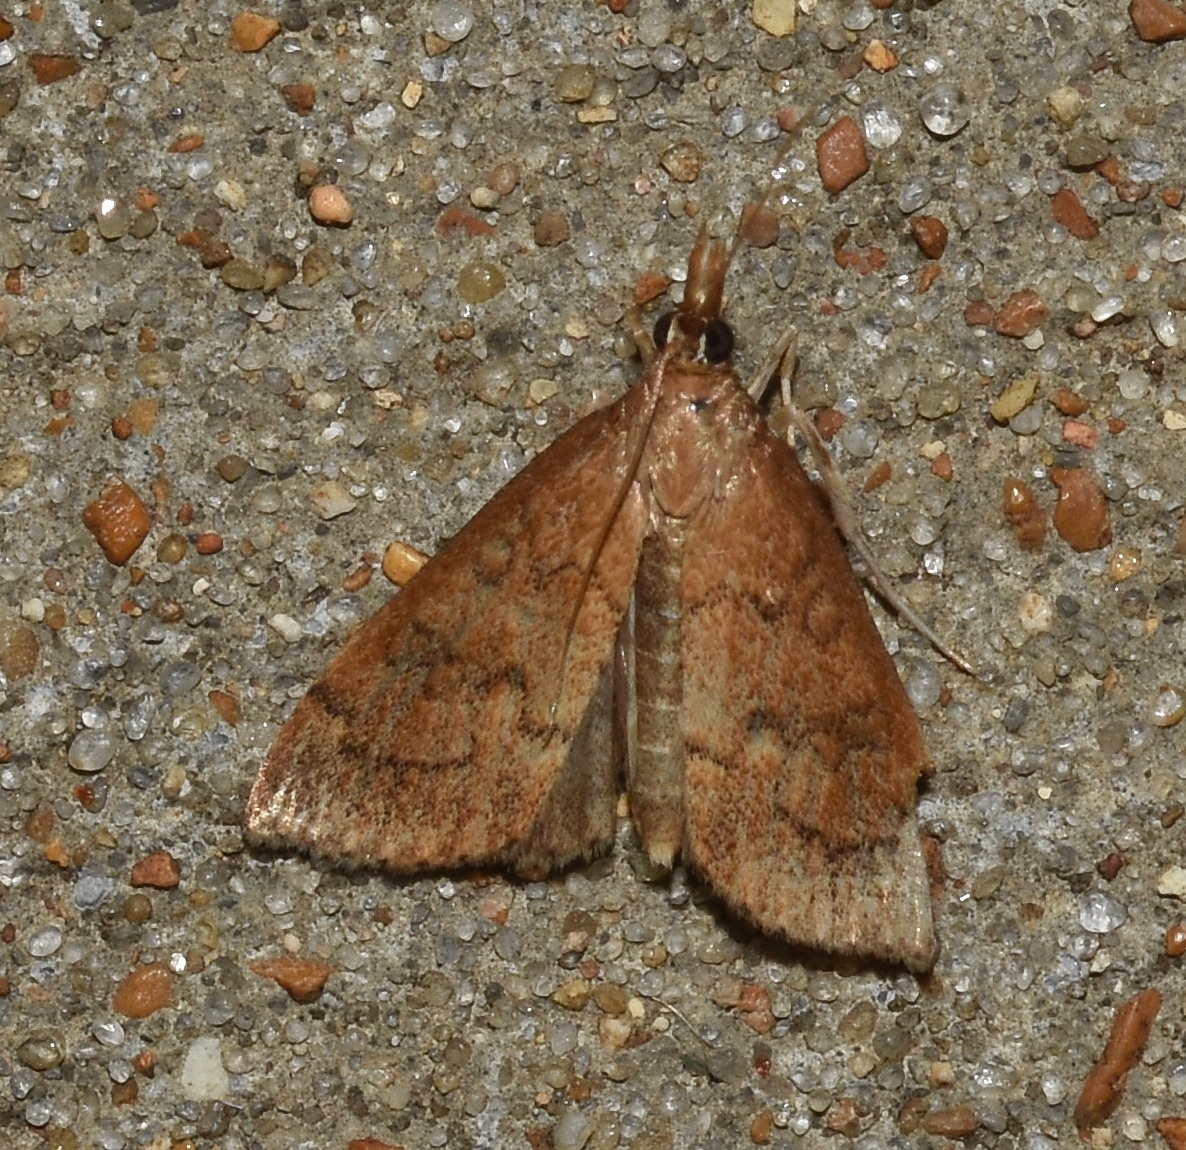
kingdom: Animalia
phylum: Arthropoda
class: Insecta
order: Lepidoptera
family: Crambidae
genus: Udea
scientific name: Udea rubigalis
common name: Celery leaftier moth
